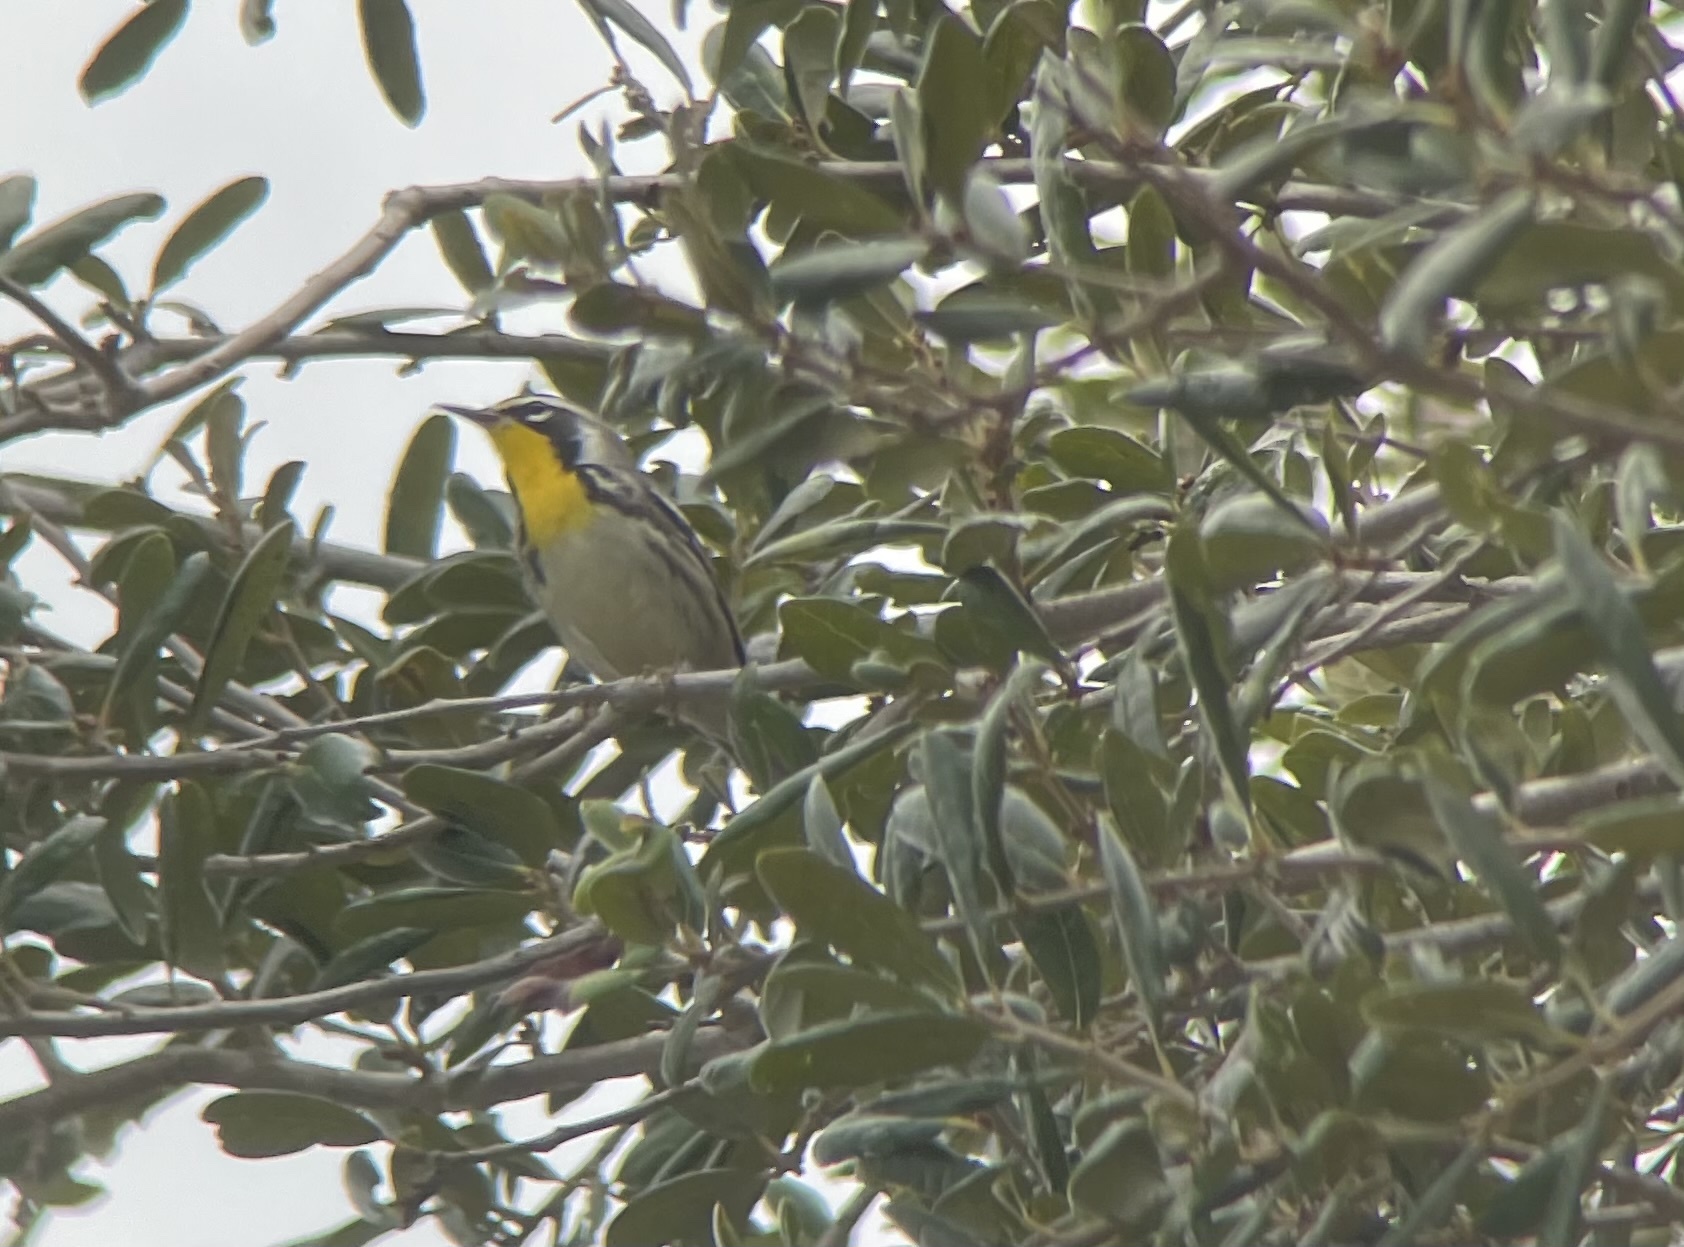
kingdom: Animalia
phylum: Chordata
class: Aves
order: Passeriformes
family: Parulidae
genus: Setophaga
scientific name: Setophaga dominica
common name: Yellow-throated warbler
